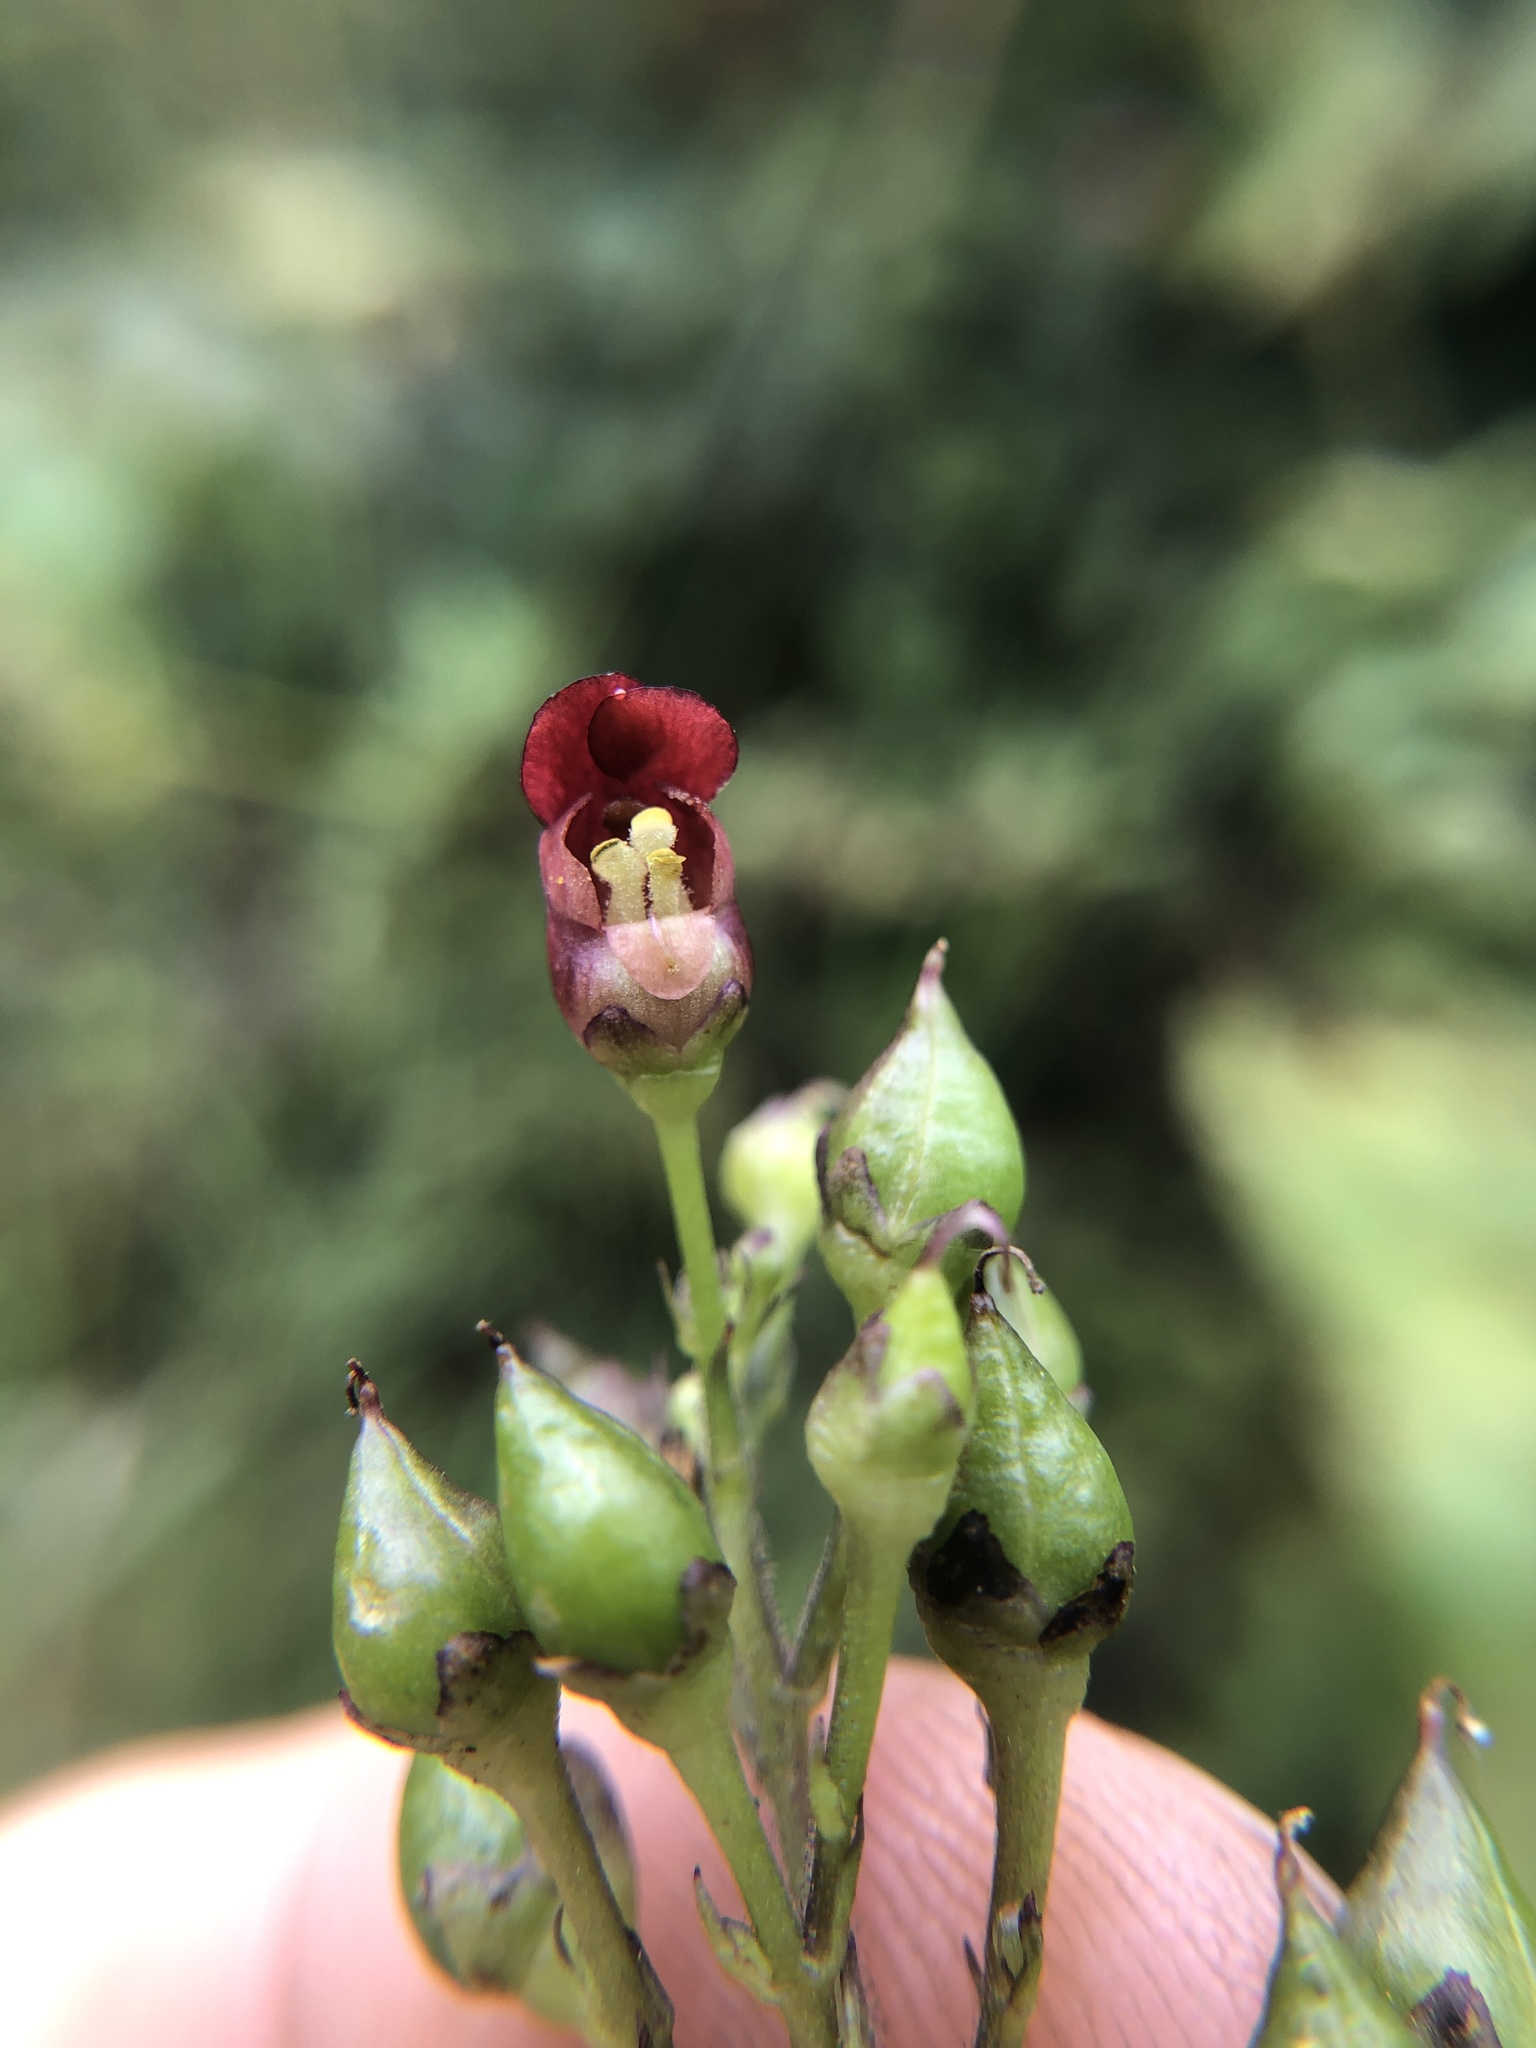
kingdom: Plantae
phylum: Tracheophyta
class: Magnoliopsida
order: Lamiales
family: Scrophulariaceae
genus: Scrophularia
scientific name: Scrophularia californica
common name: California figwort
